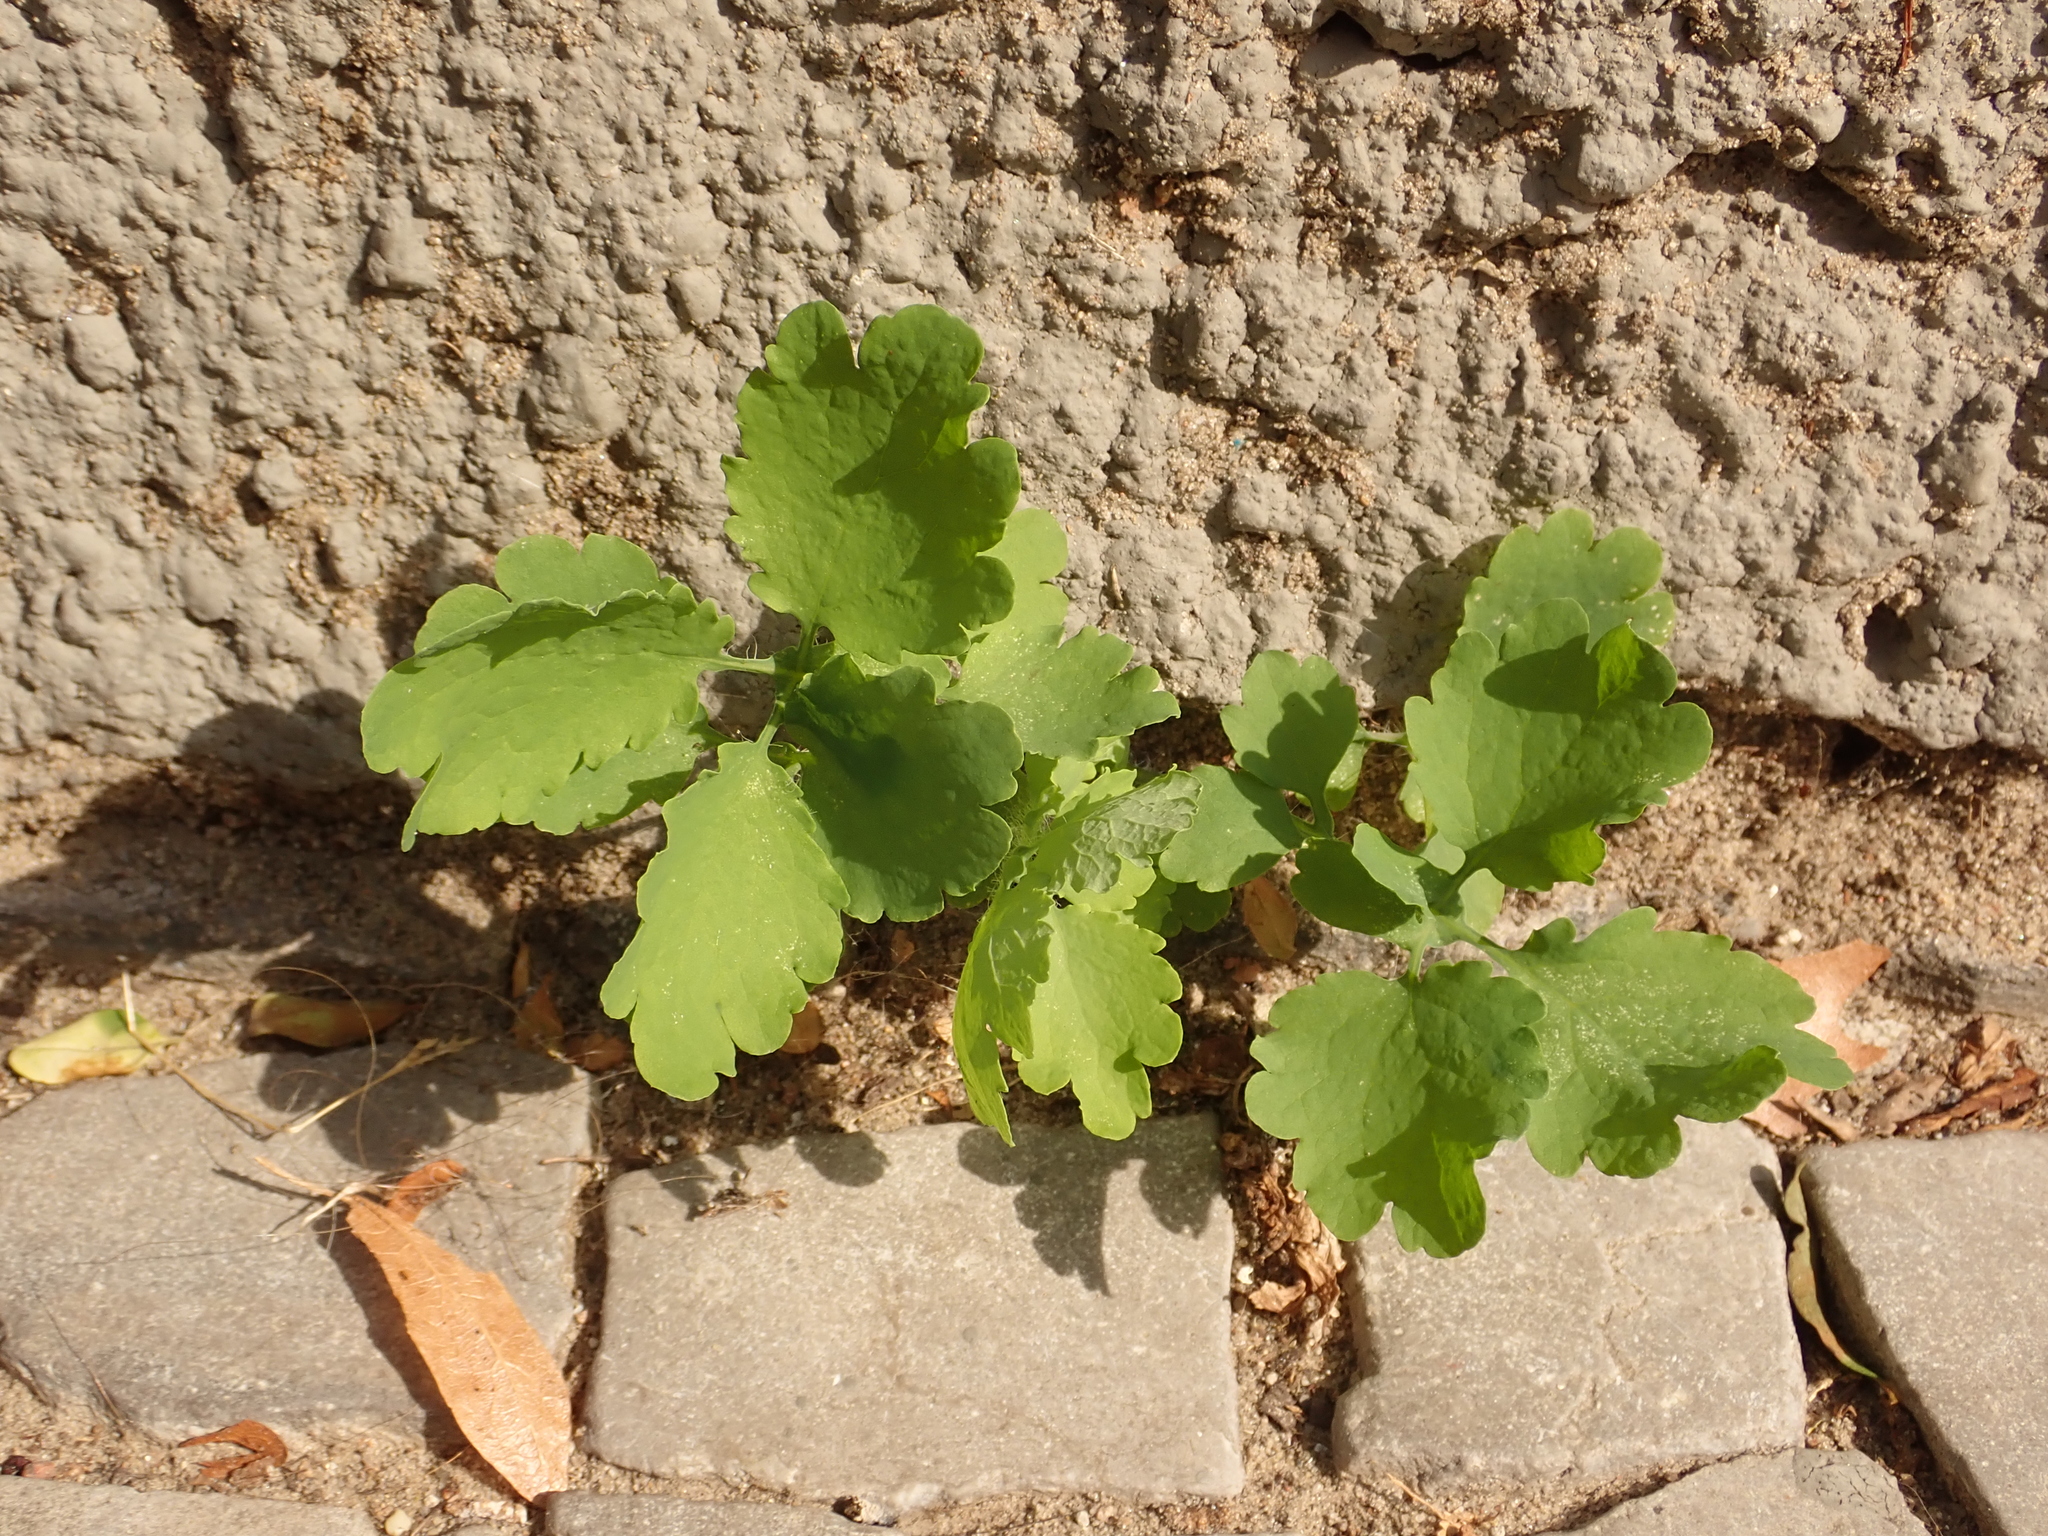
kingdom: Plantae
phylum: Tracheophyta
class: Magnoliopsida
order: Ranunculales
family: Papaveraceae
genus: Chelidonium
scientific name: Chelidonium majus
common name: Greater celandine
